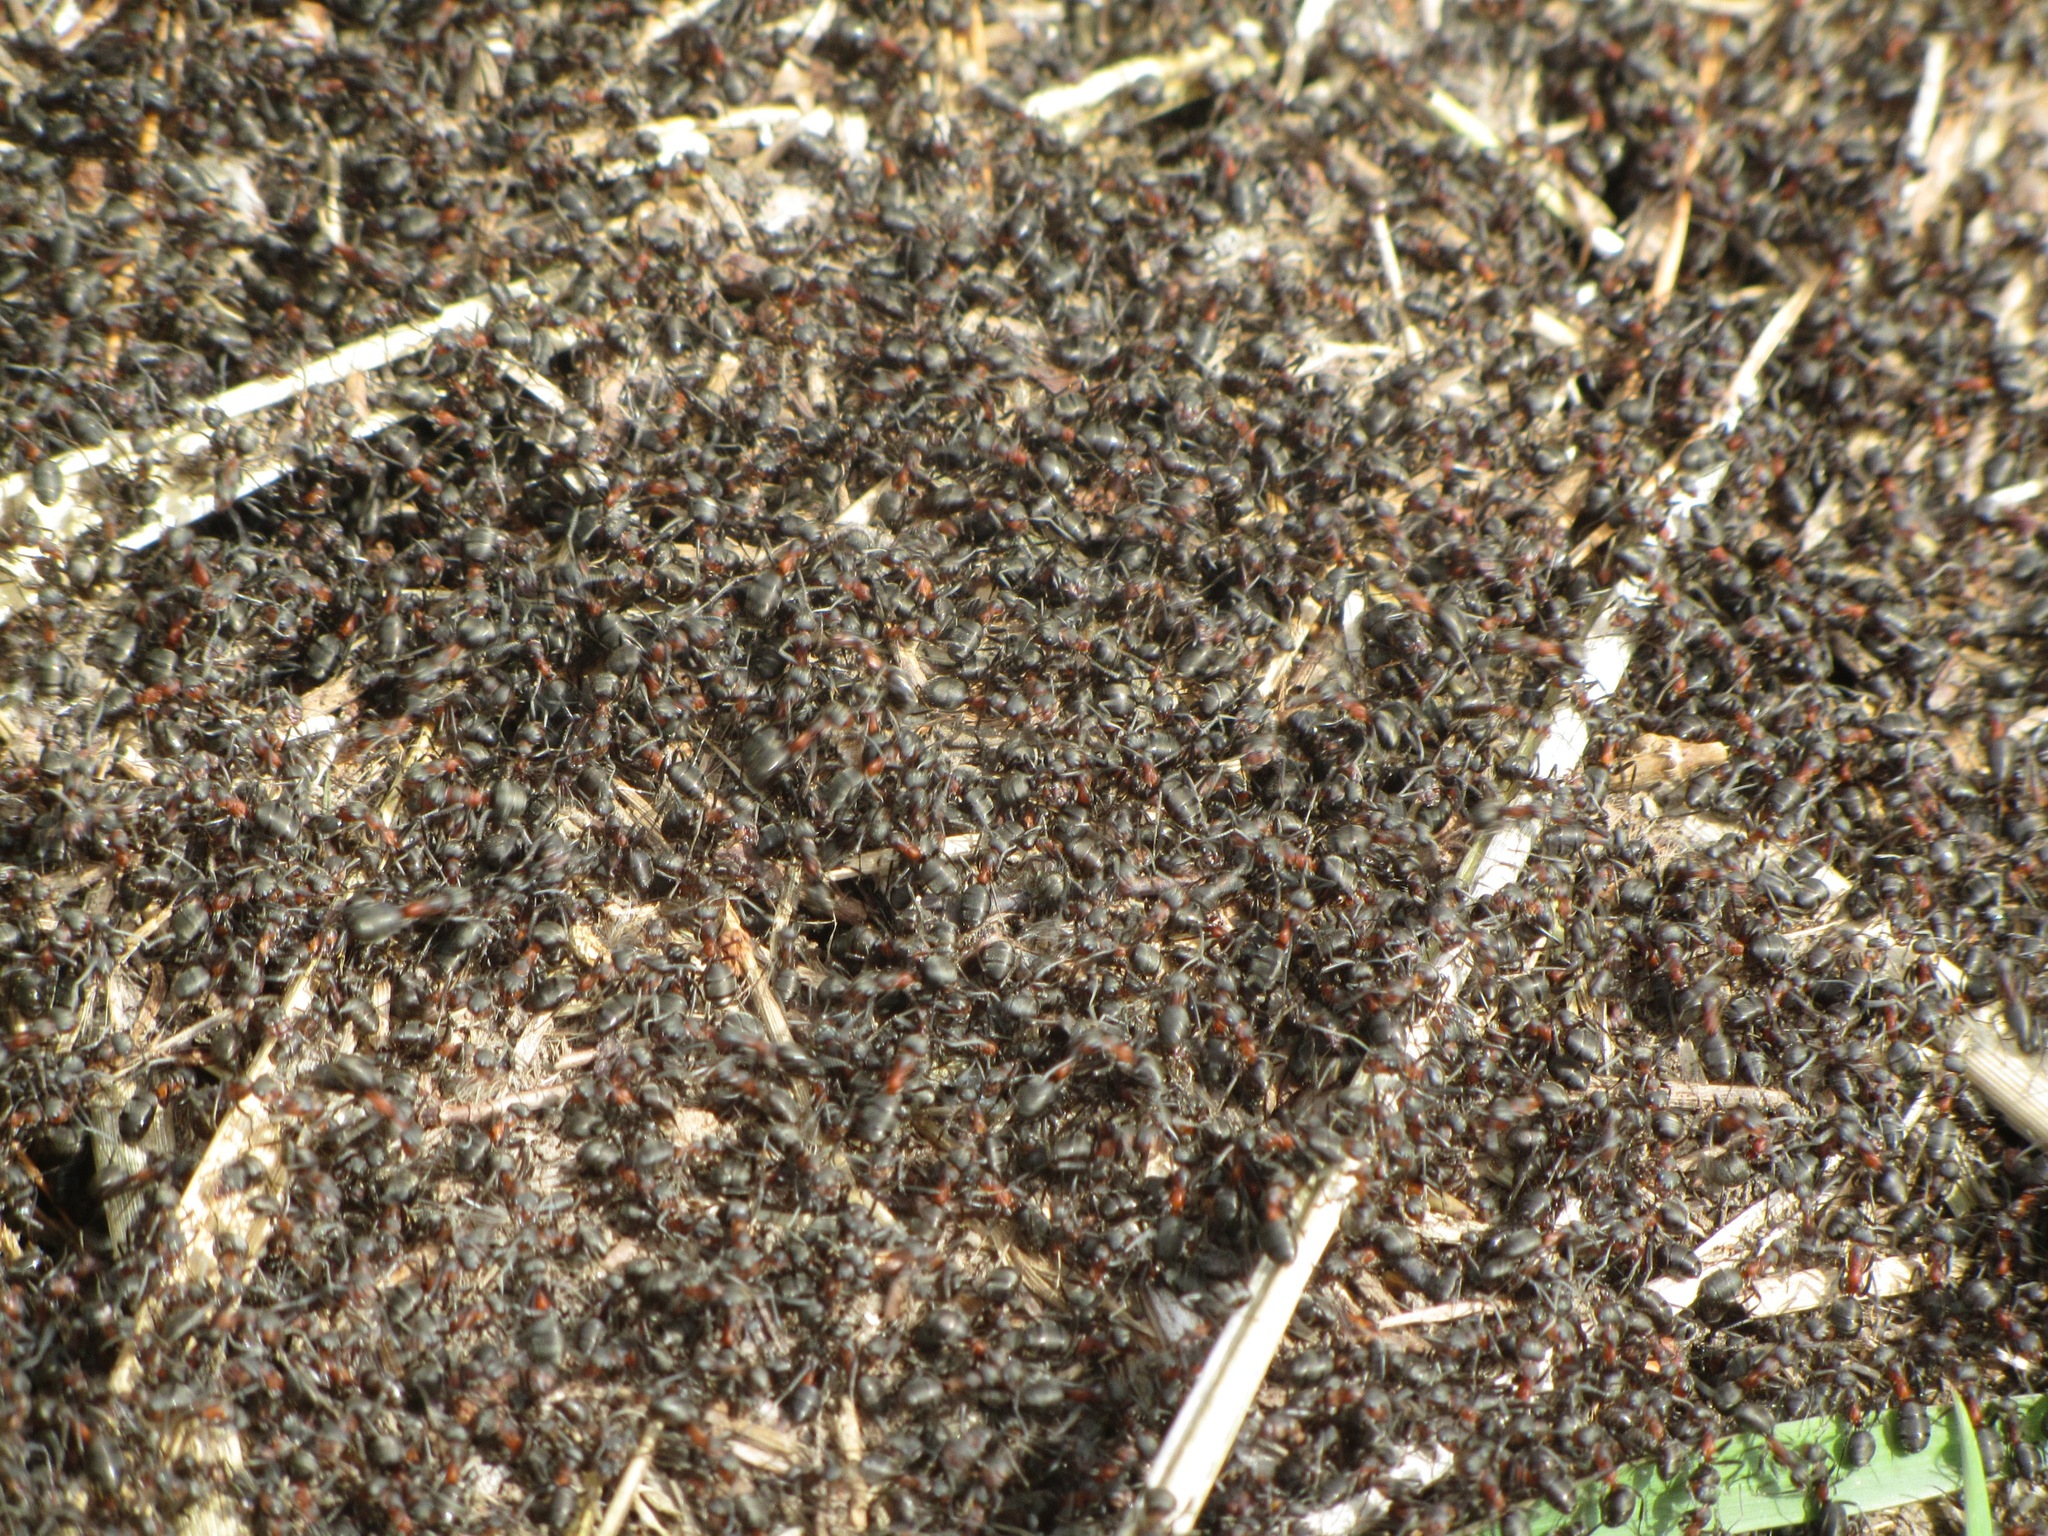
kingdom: Animalia
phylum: Arthropoda
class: Insecta
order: Hymenoptera
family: Formicidae
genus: Formica
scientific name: Formica rufa
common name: Red wood ant
